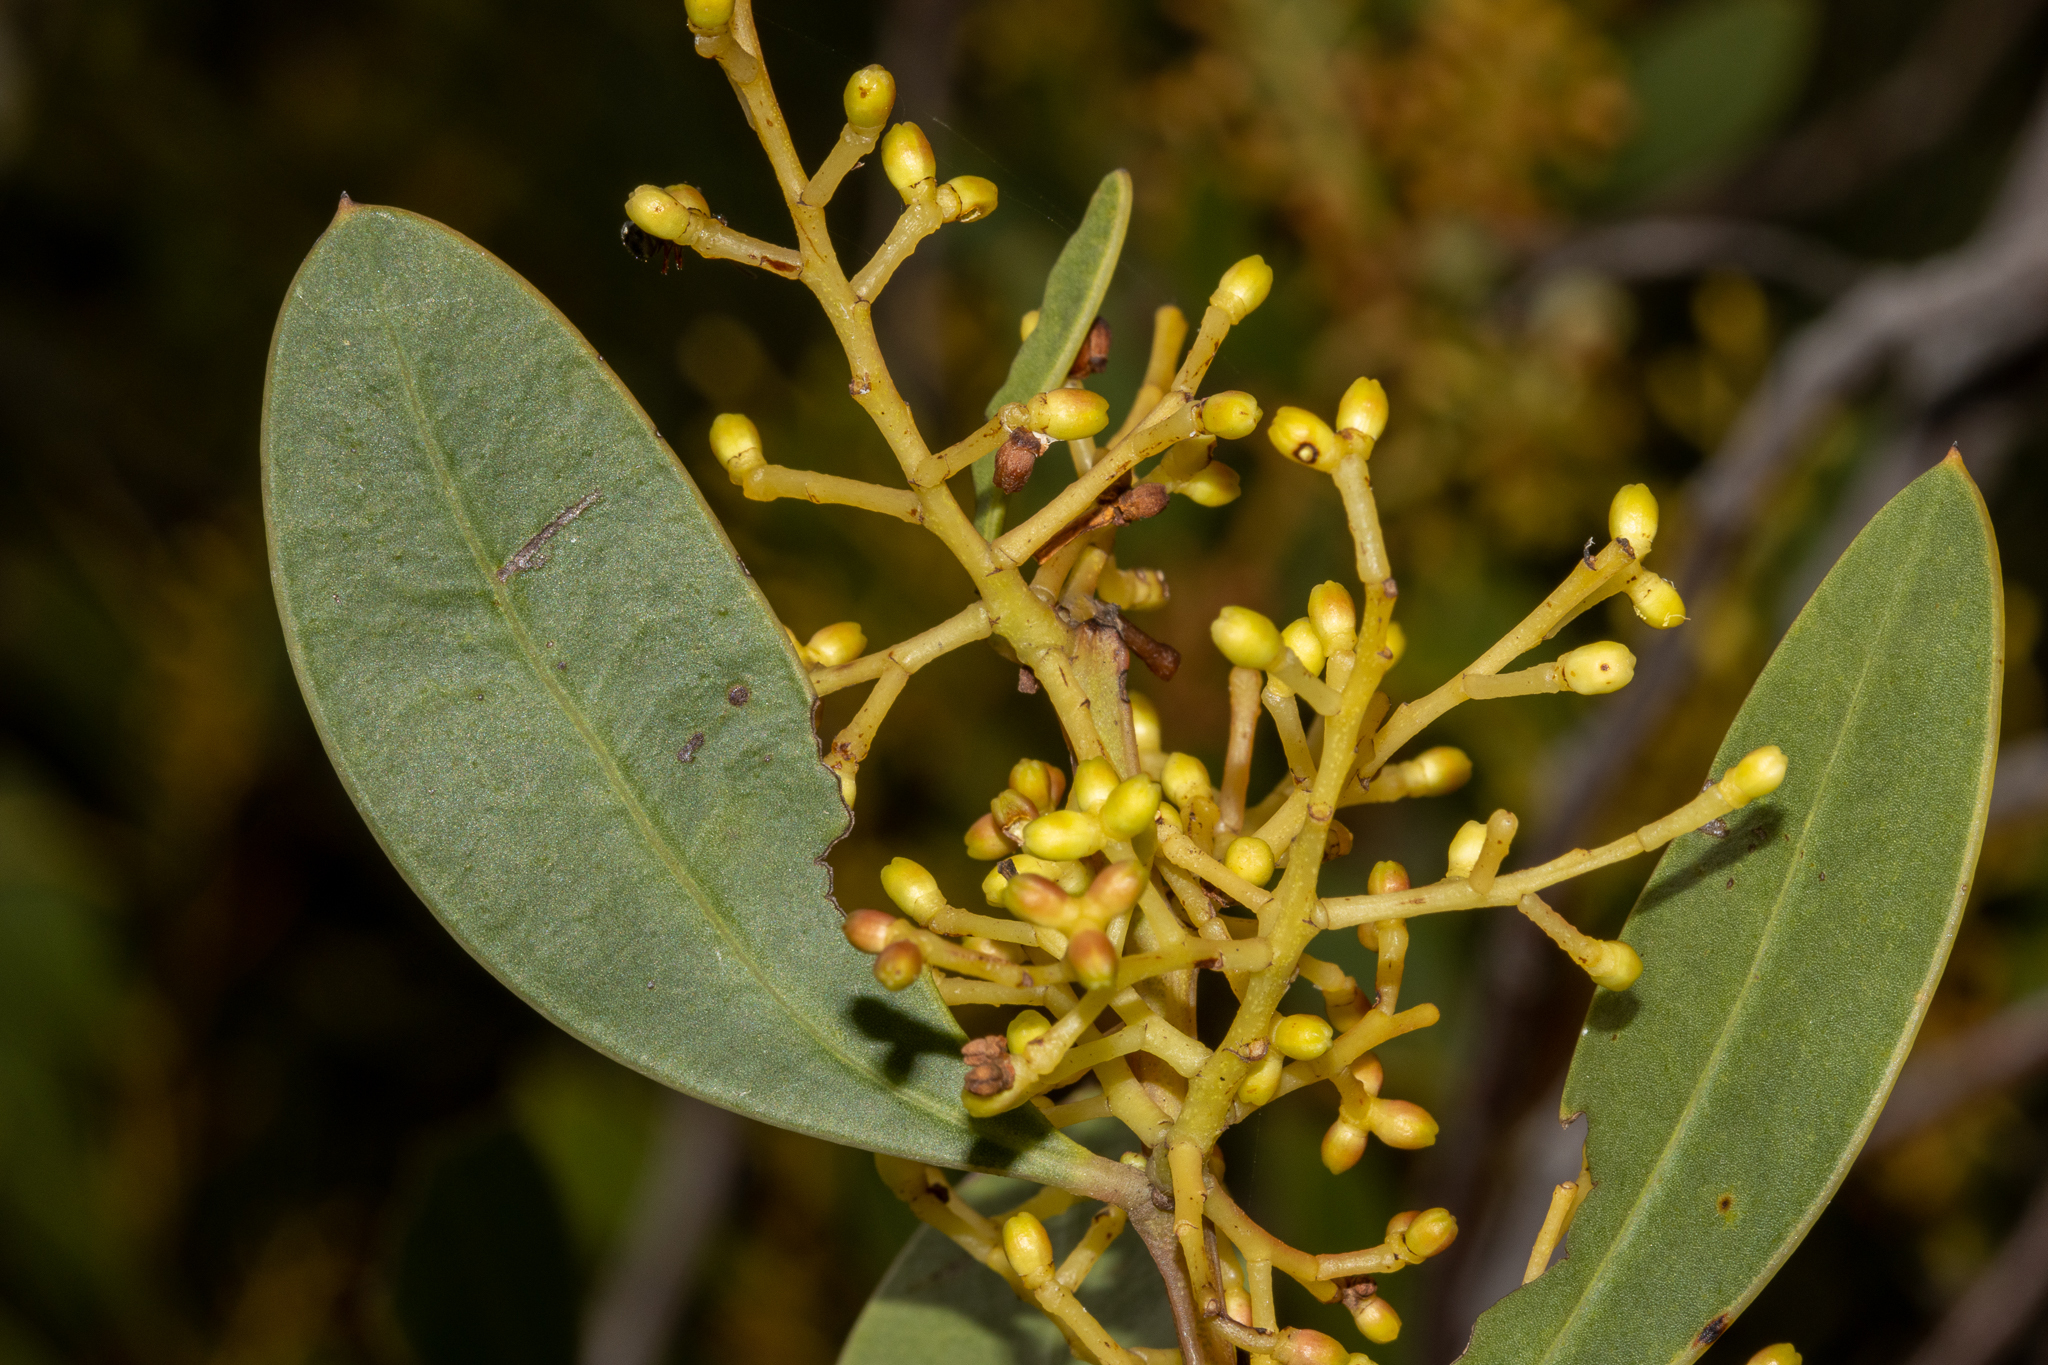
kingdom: Plantae
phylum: Tracheophyta
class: Magnoliopsida
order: Fabales
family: Fabaceae
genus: Acacia
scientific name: Acacia myrtifolia
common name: Myrtle wattle
